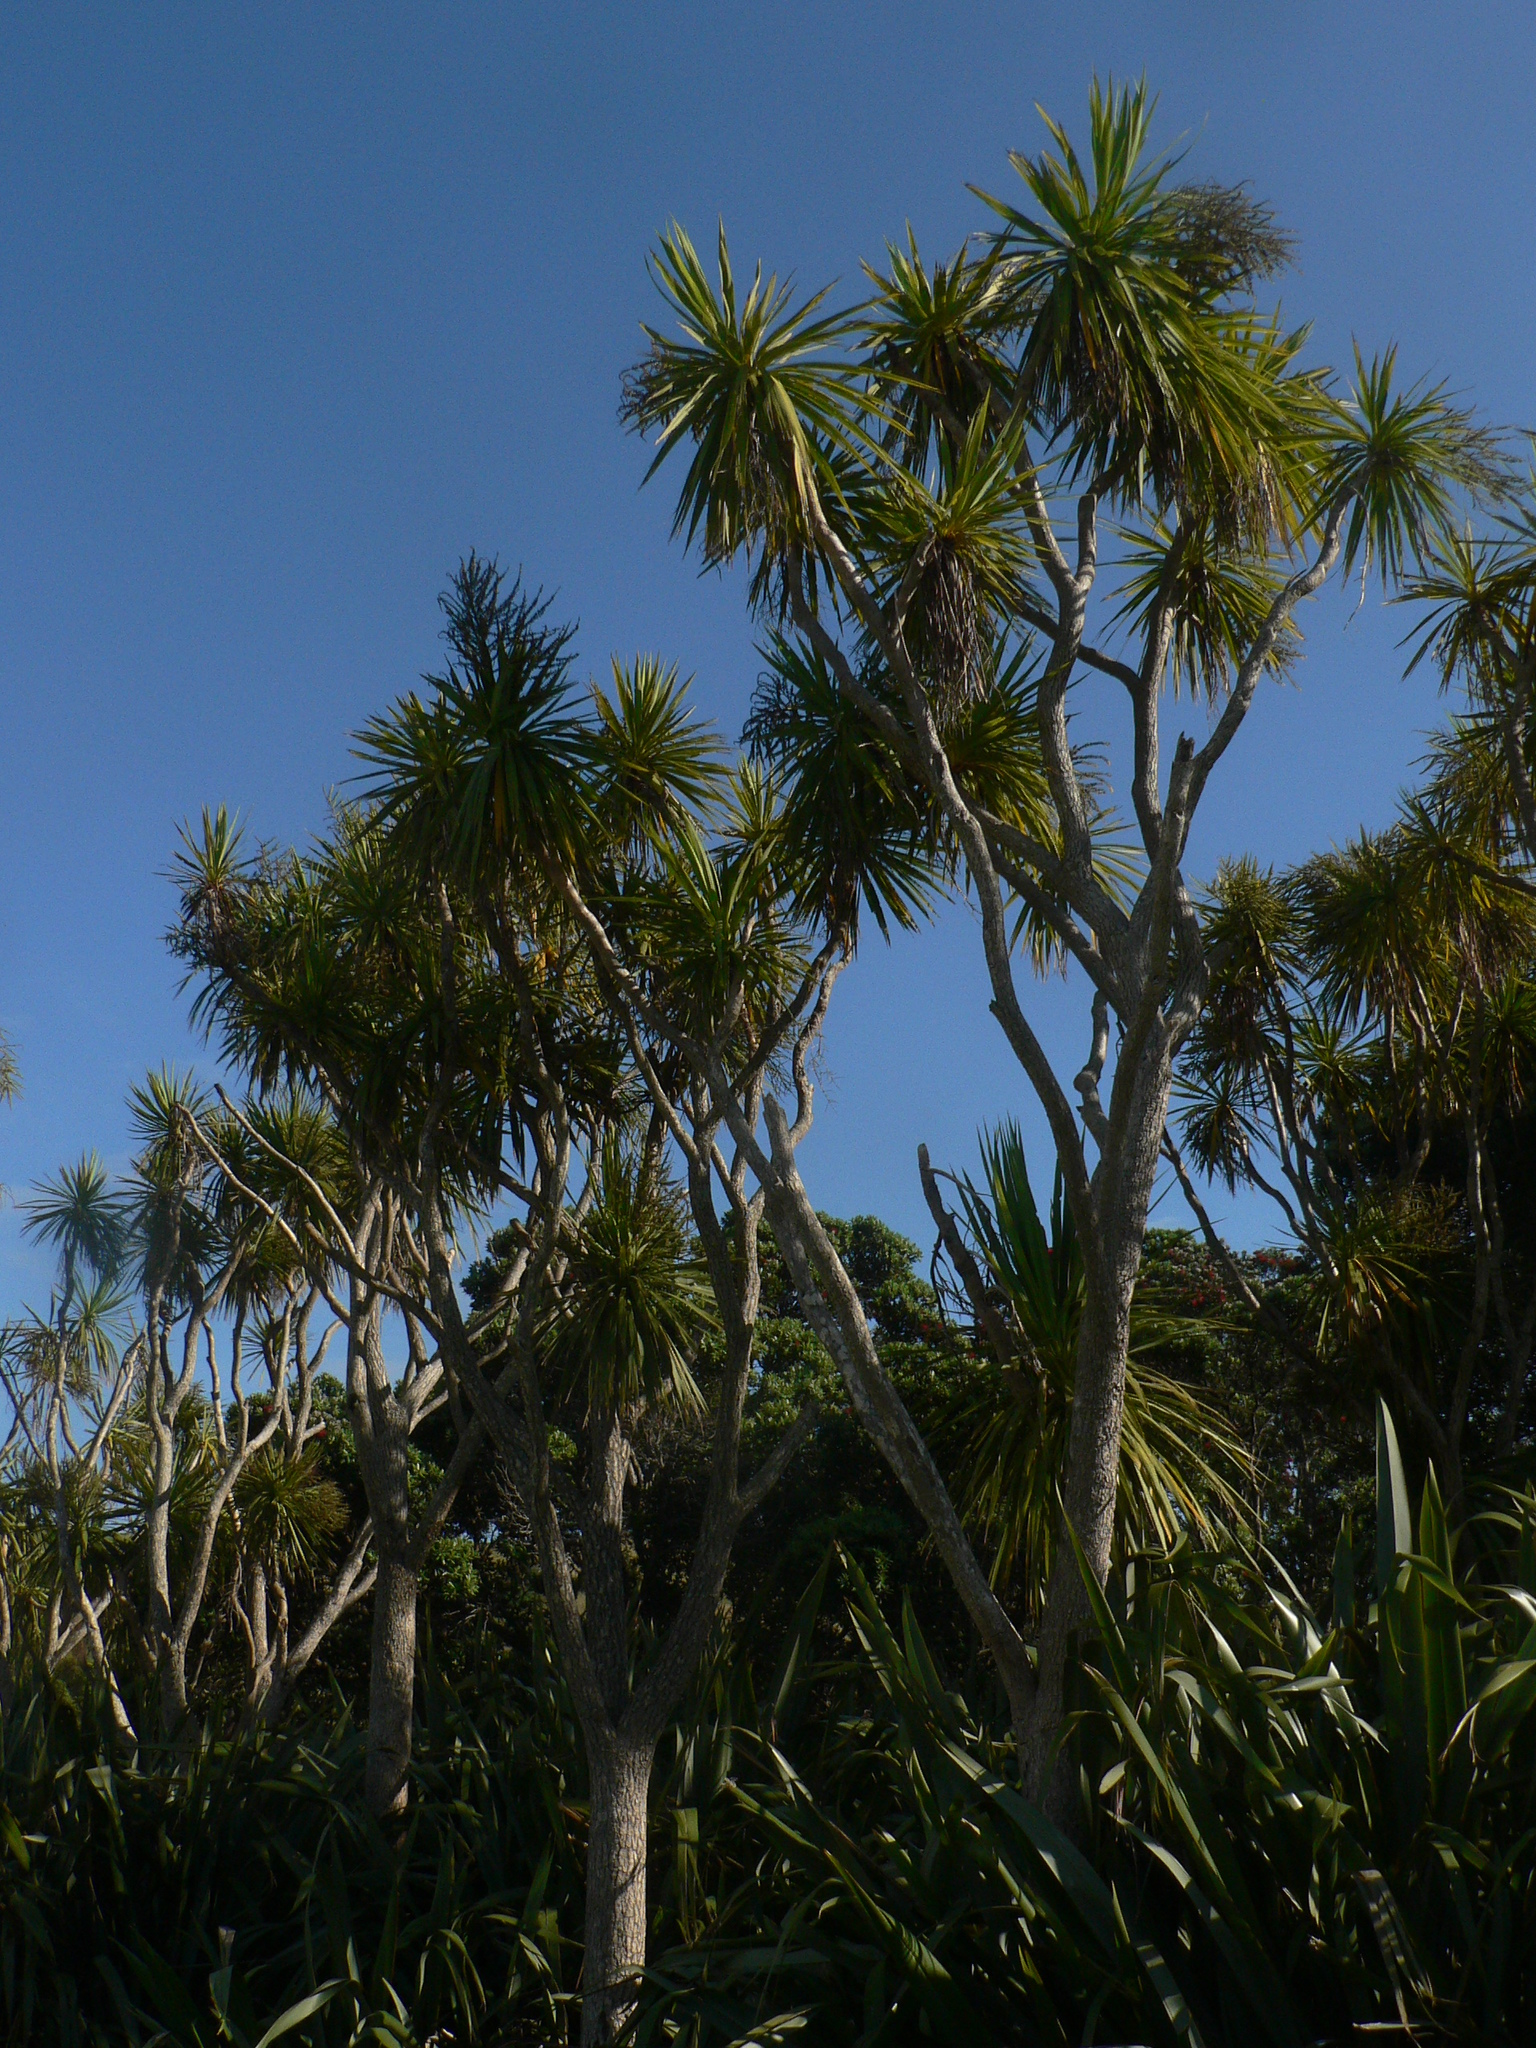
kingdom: Plantae
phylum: Tracheophyta
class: Liliopsida
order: Asparagales
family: Asparagaceae
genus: Cordyline
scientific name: Cordyline australis
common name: Cabbage-palm
